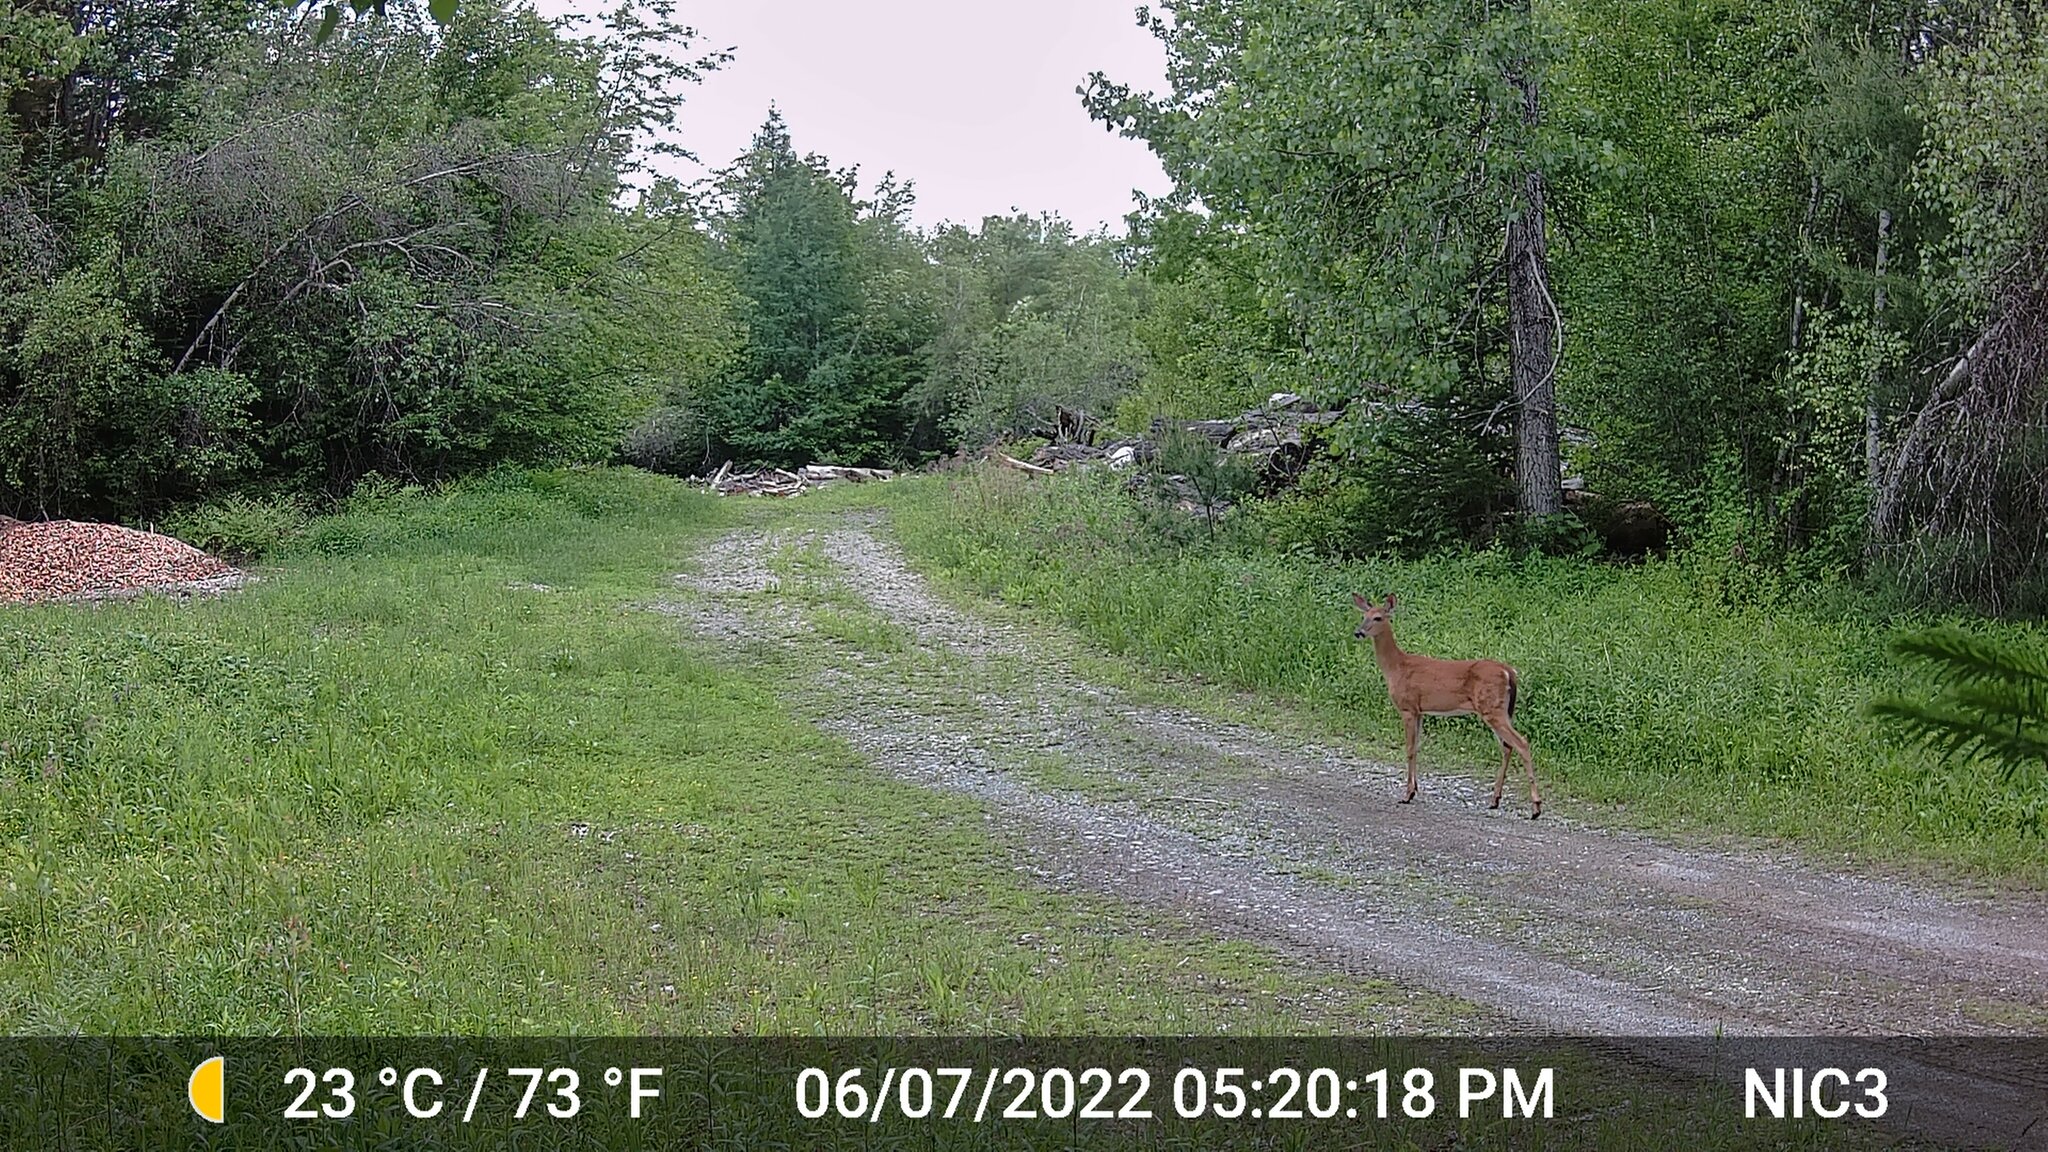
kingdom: Animalia
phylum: Chordata
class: Mammalia
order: Artiodactyla
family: Cervidae
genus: Odocoileus
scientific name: Odocoileus virginianus
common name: White-tailed deer
